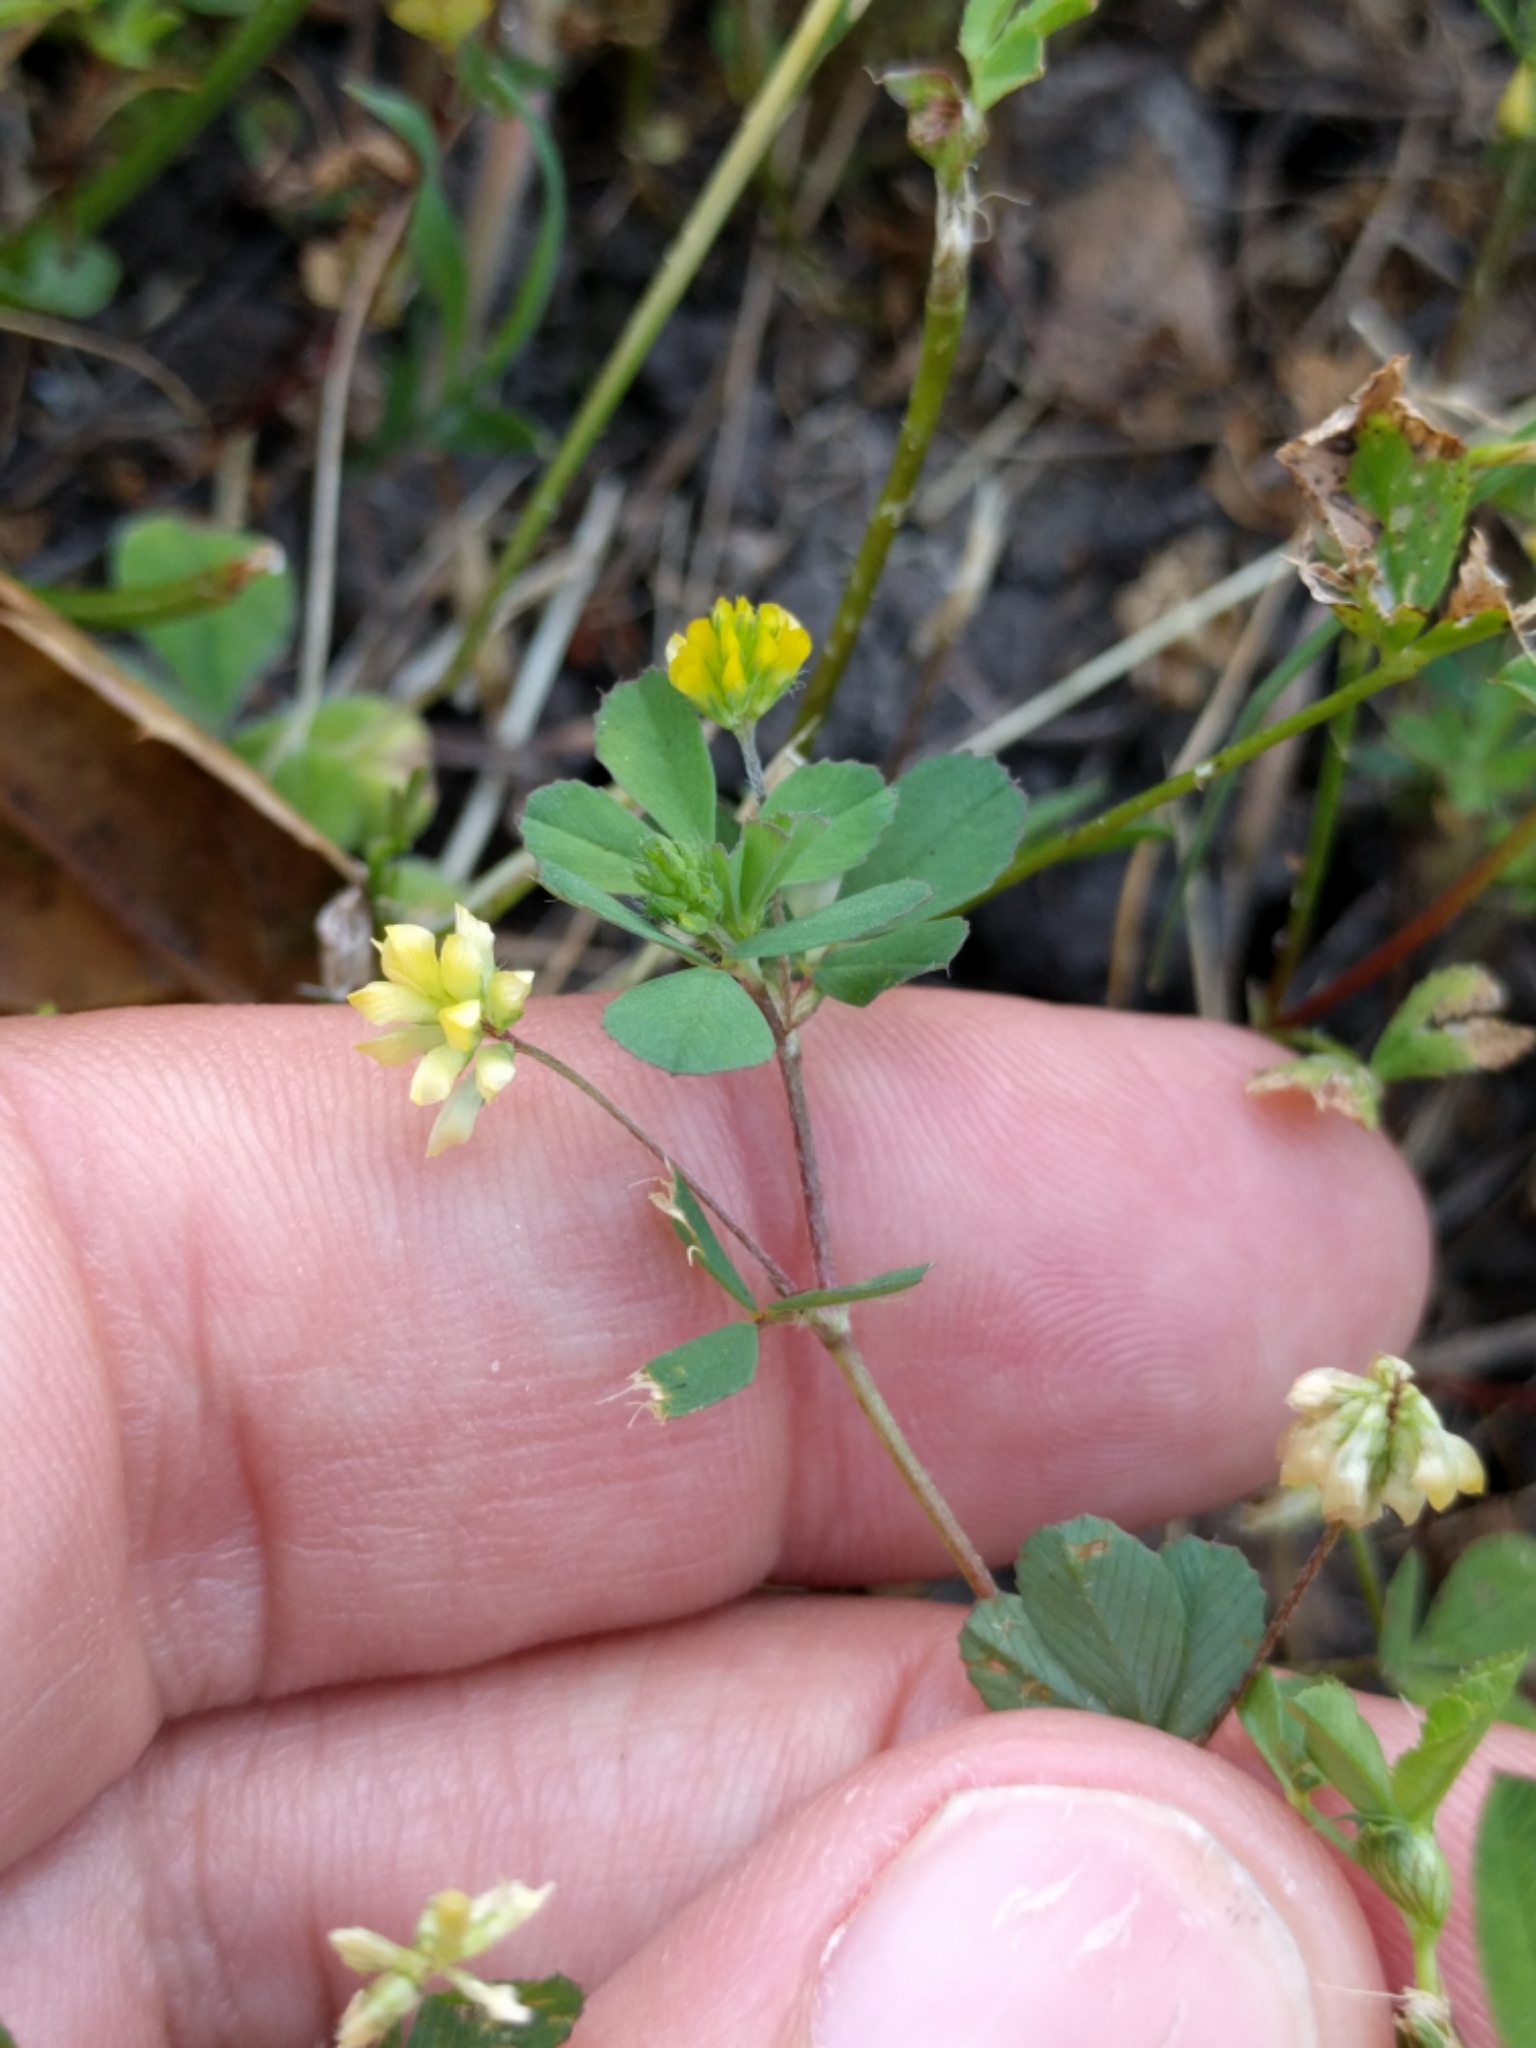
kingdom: Plantae
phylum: Tracheophyta
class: Magnoliopsida
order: Fabales
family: Fabaceae
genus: Trifolium
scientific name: Trifolium dubium
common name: Suckling clover
